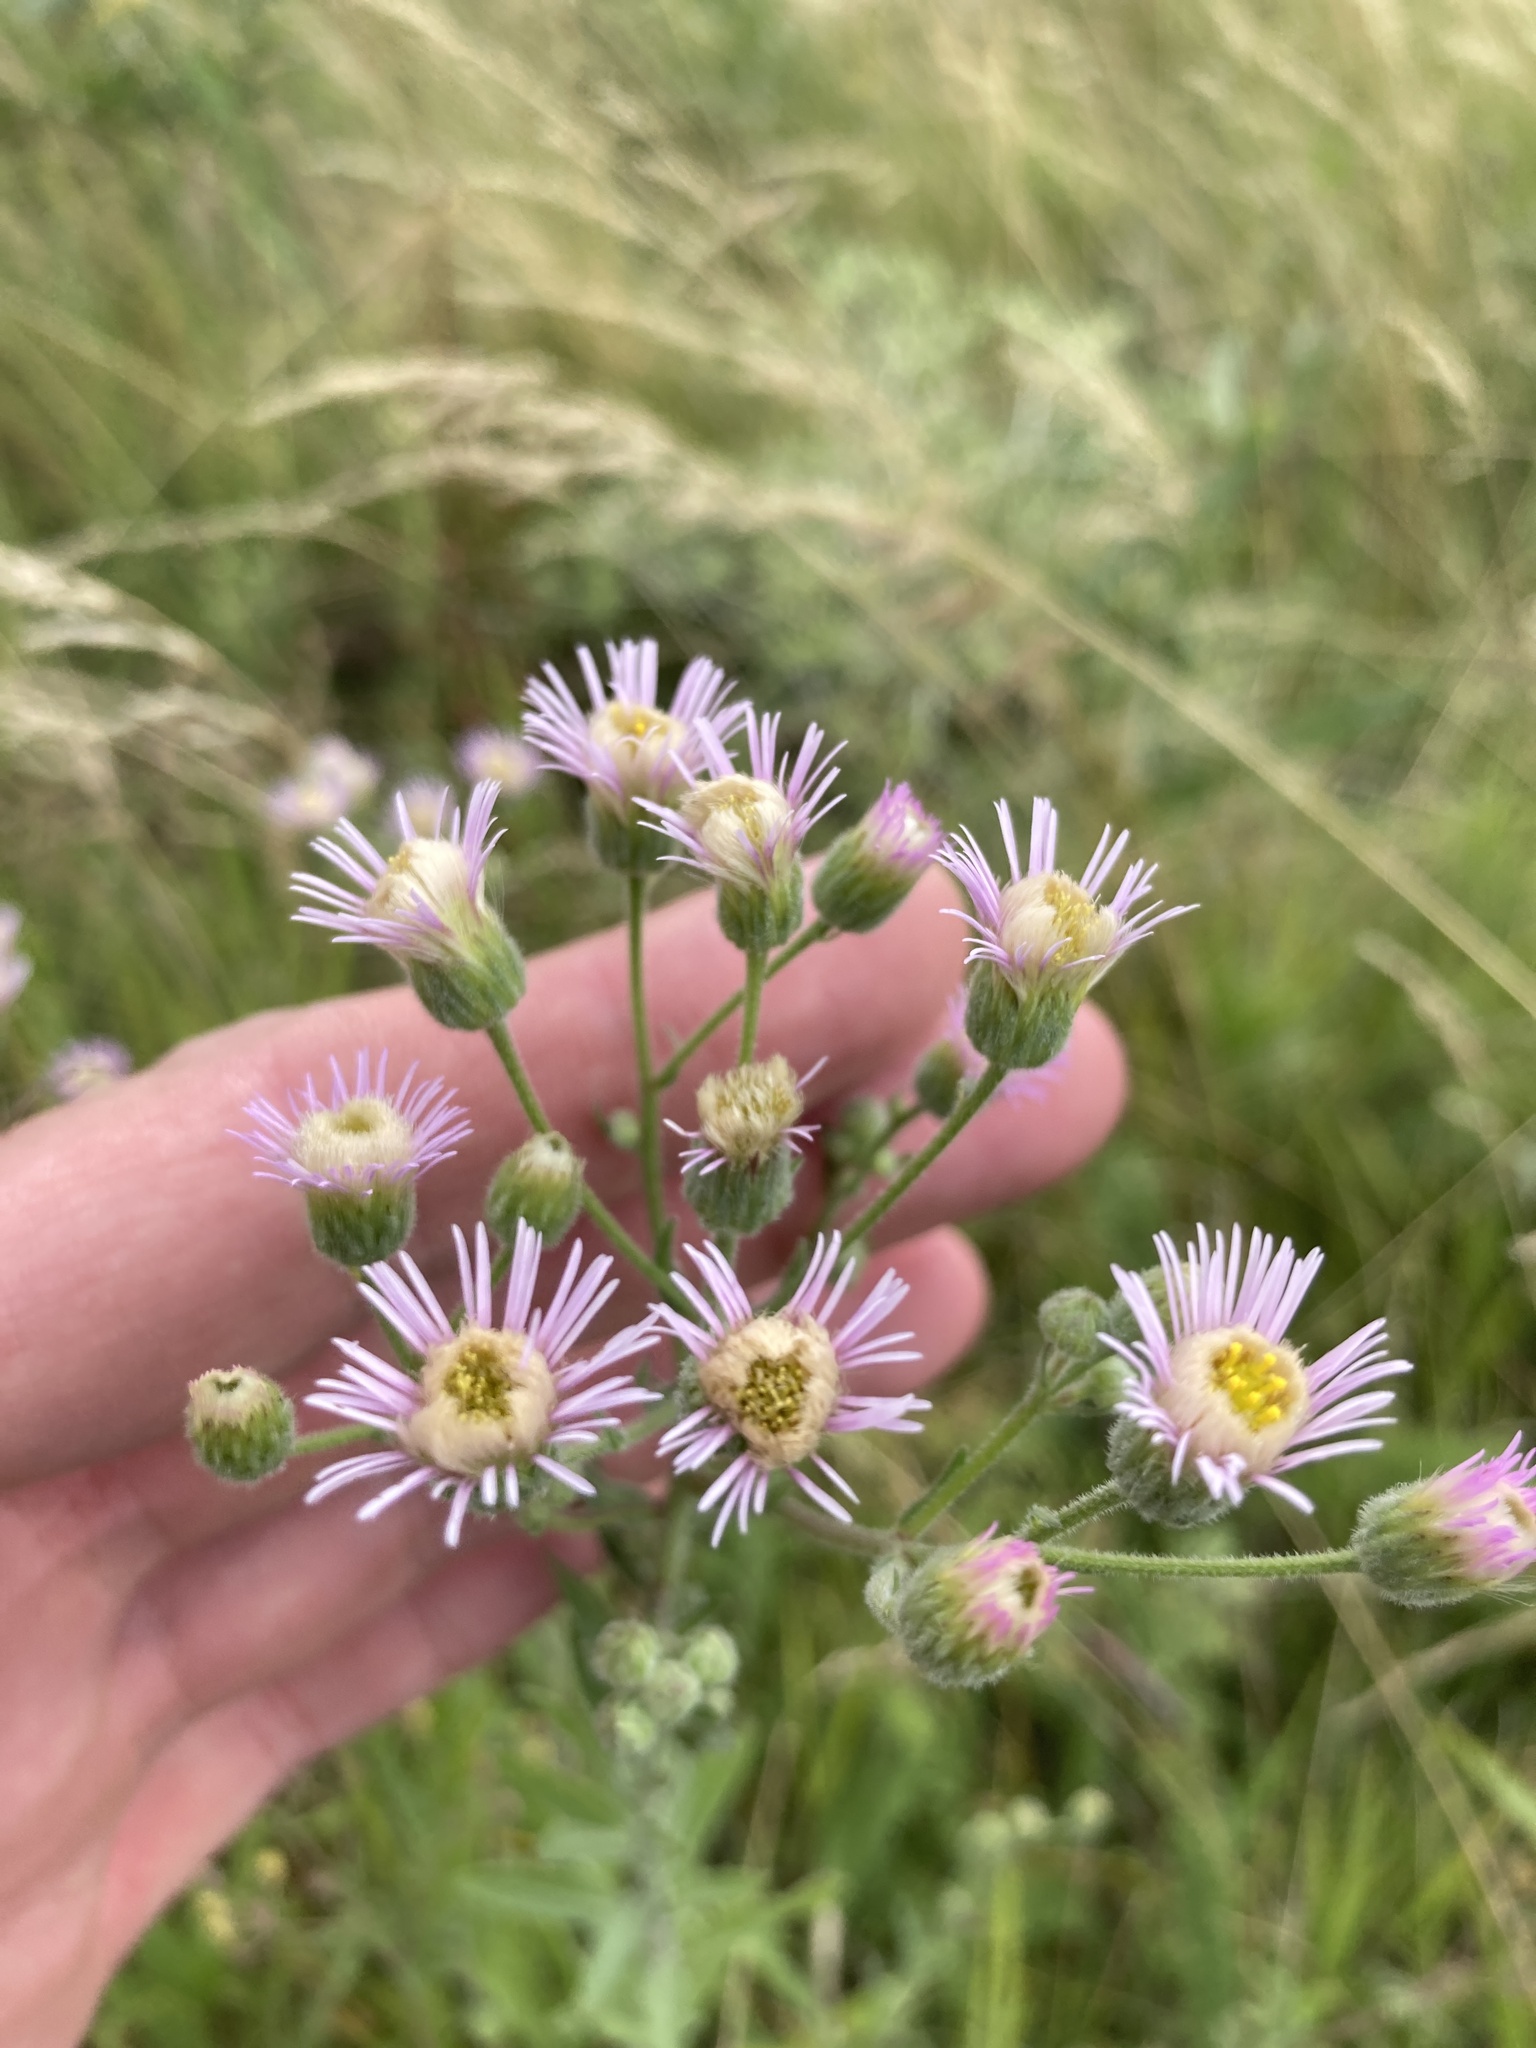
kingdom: Plantae
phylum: Tracheophyta
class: Magnoliopsida
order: Asterales
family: Asteraceae
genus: Erigeron
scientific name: Erigeron acris
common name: Blue fleabane
